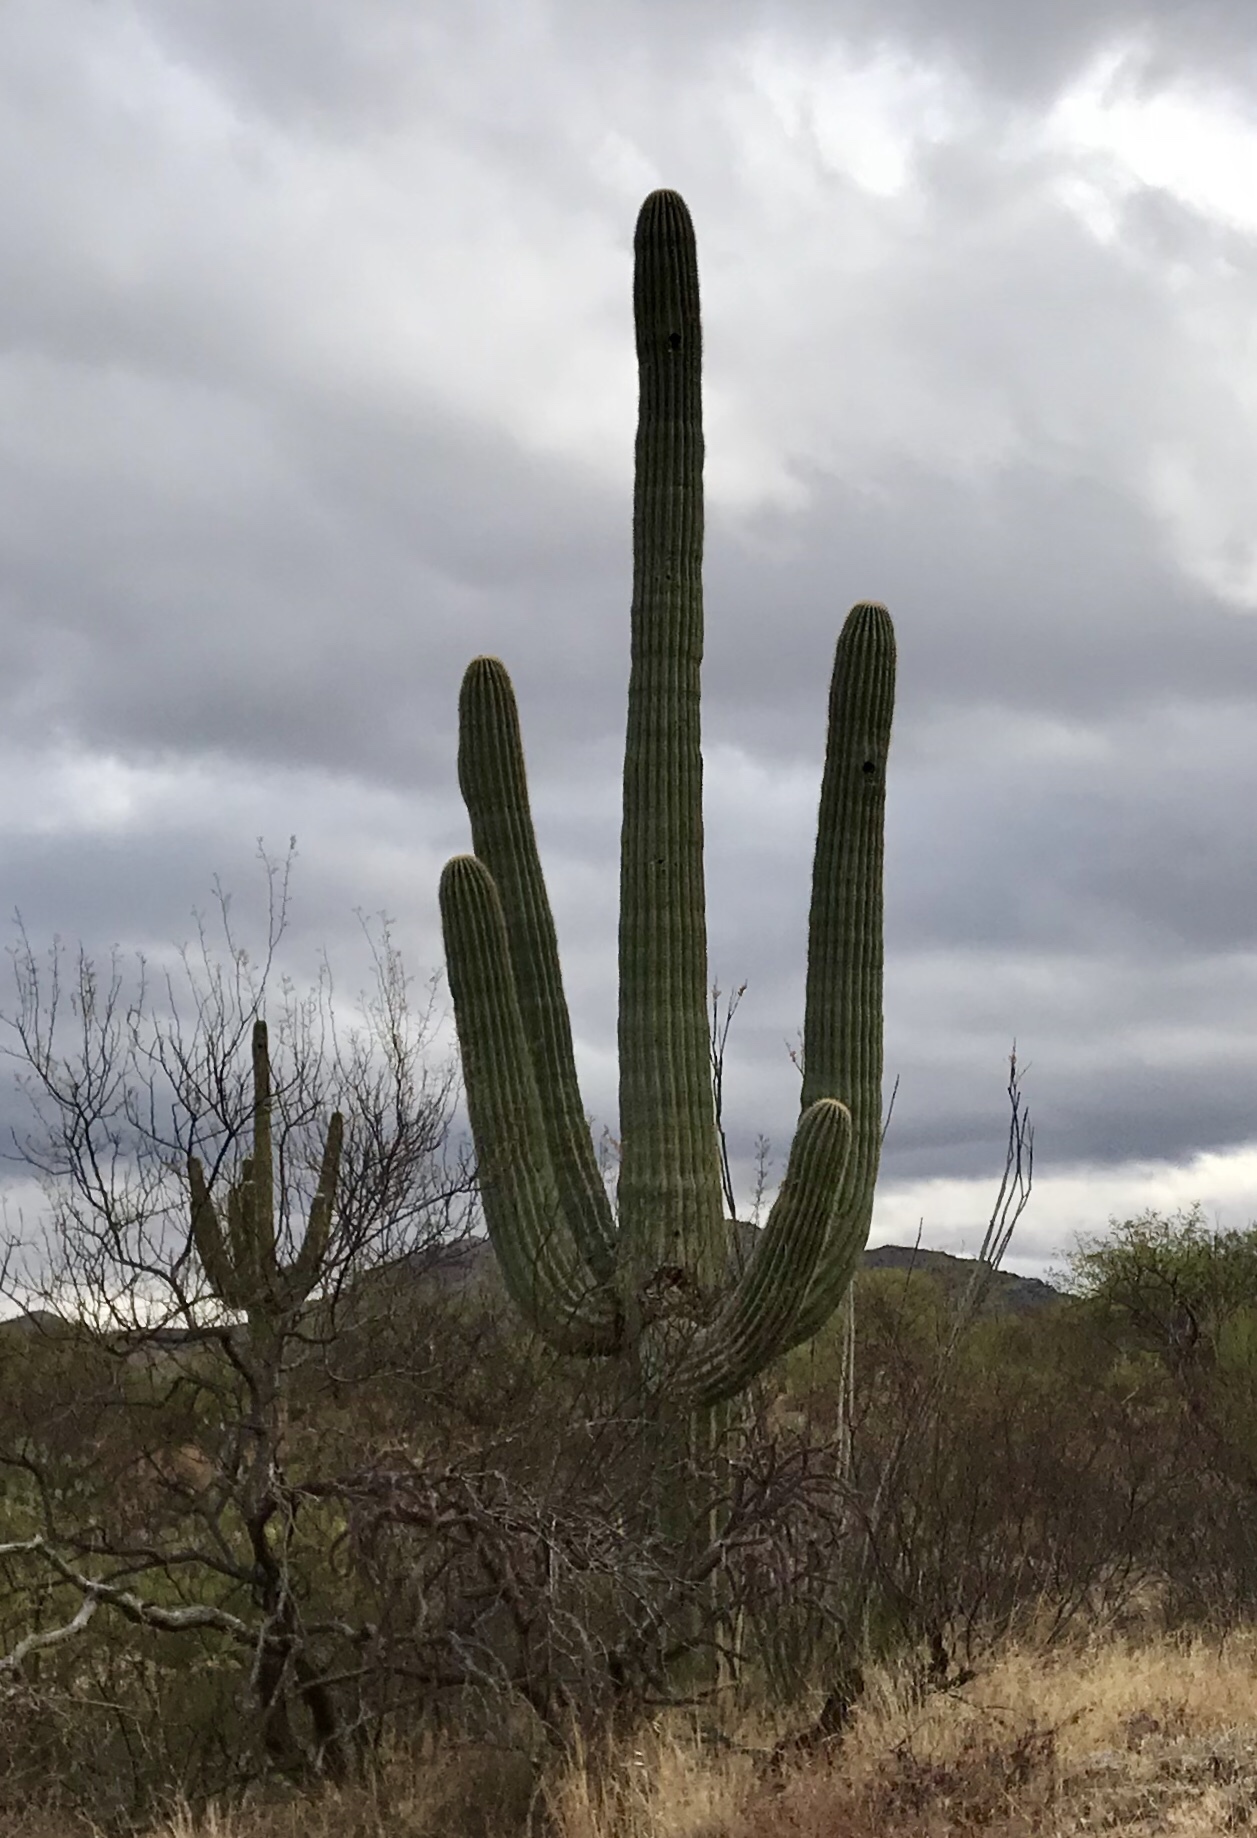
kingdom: Plantae
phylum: Tracheophyta
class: Magnoliopsida
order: Caryophyllales
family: Cactaceae
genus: Carnegiea
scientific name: Carnegiea gigantea
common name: Saguaro
